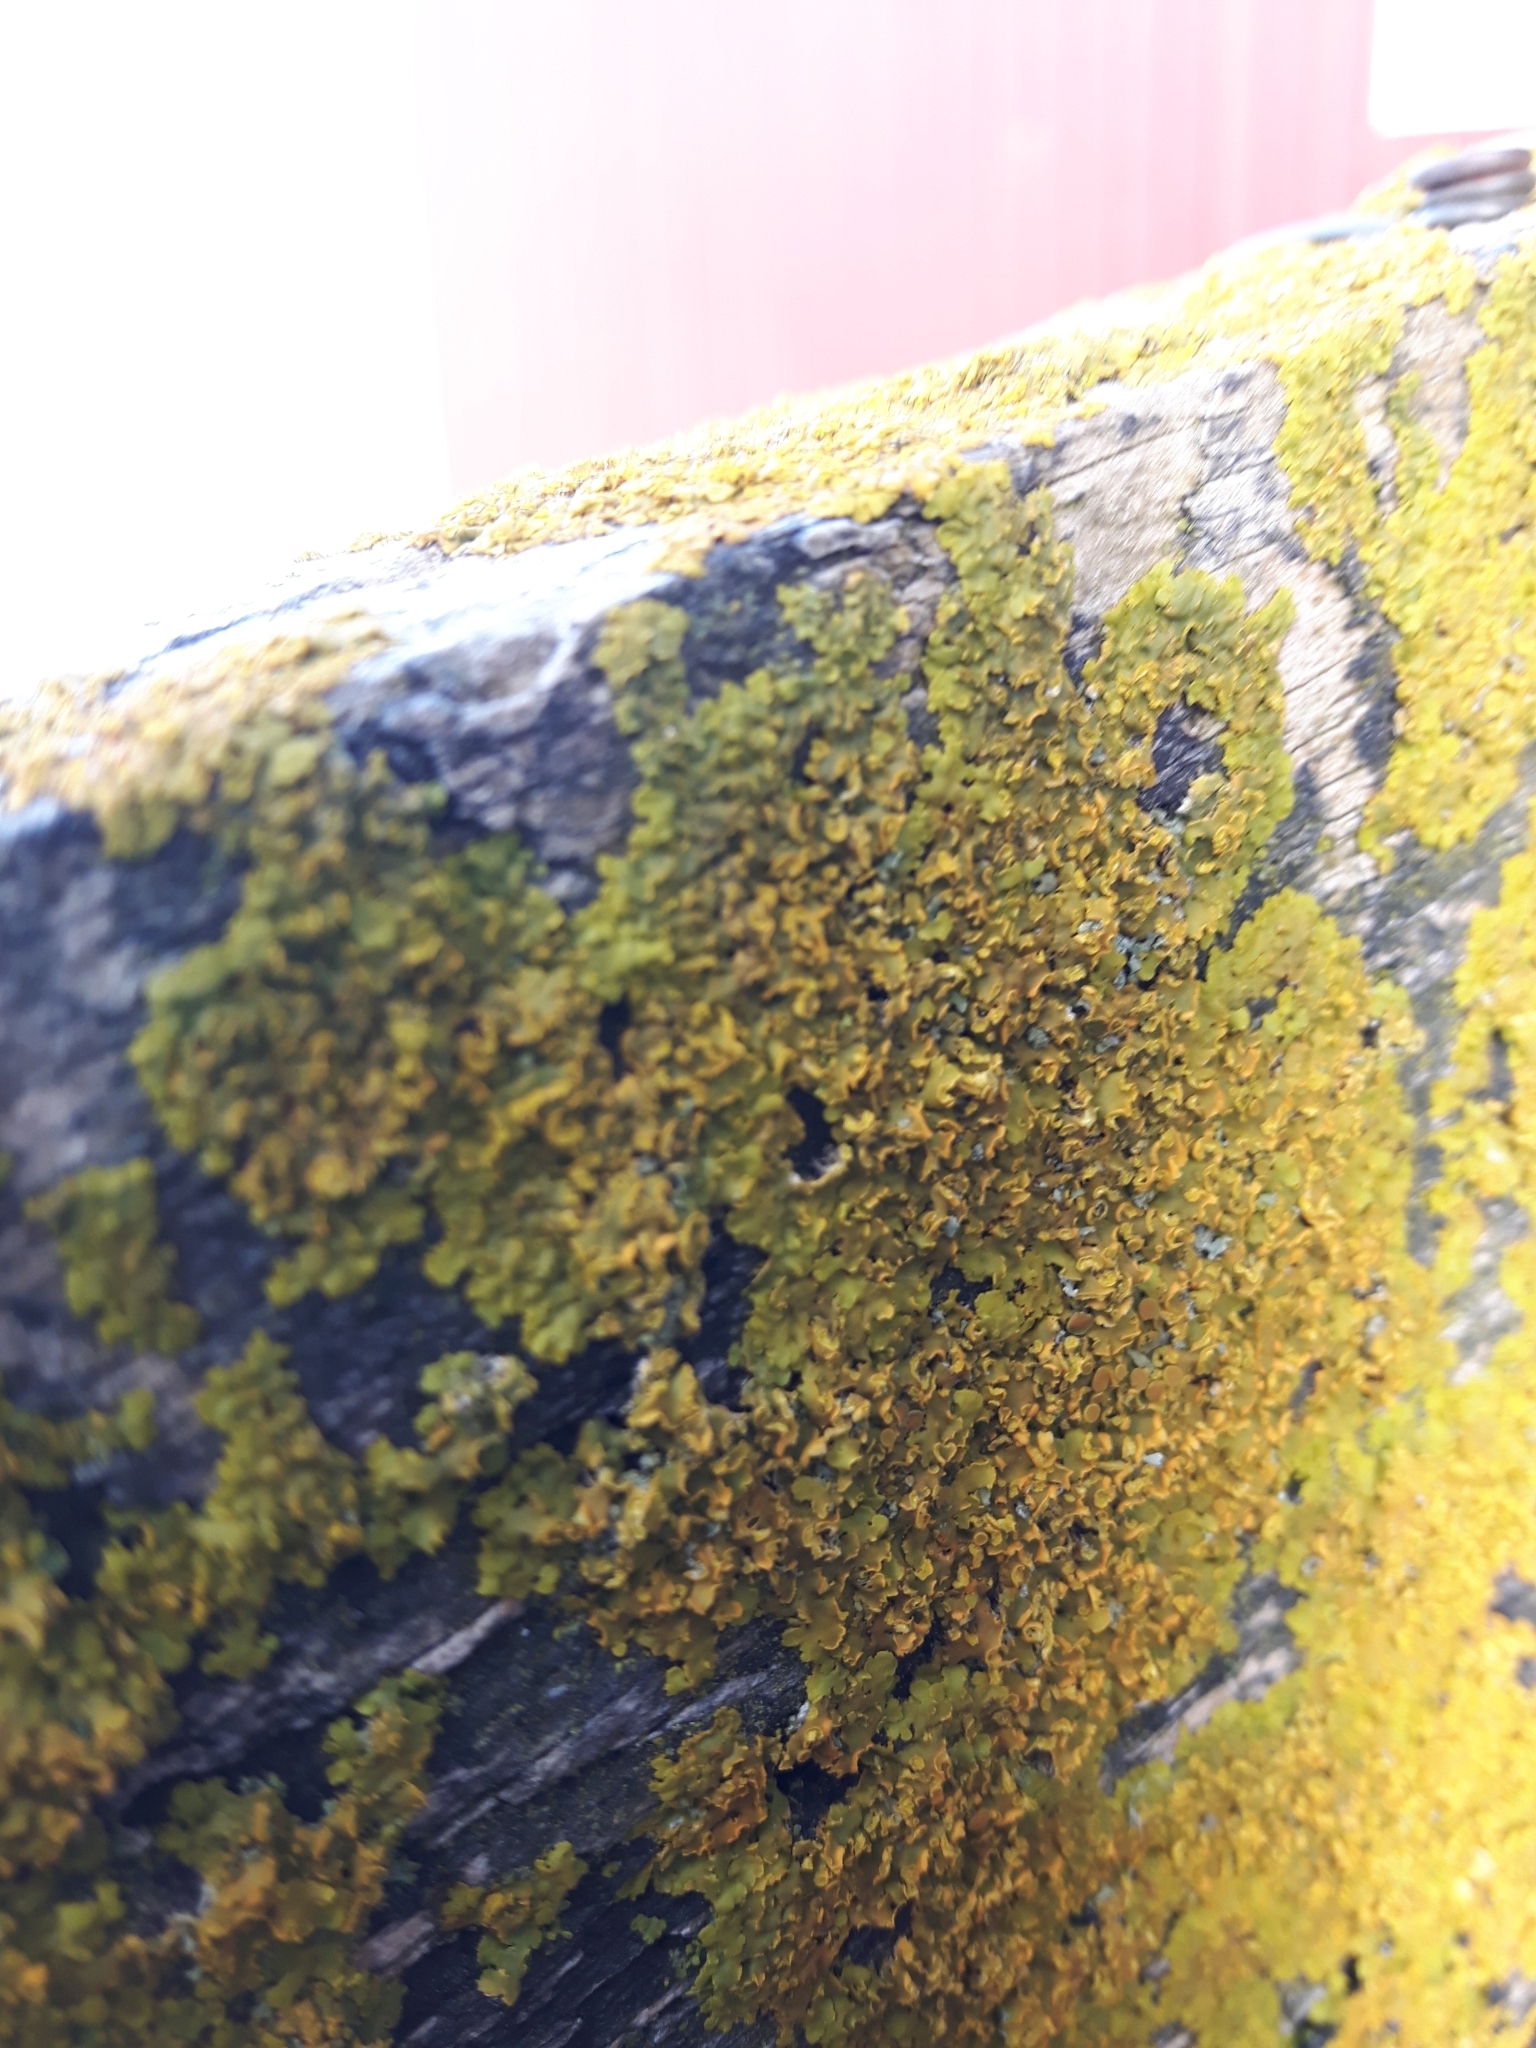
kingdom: Fungi
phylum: Ascomycota
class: Lecanoromycetes
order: Teloschistales
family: Teloschistaceae
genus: Xanthoria
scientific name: Xanthoria parietina
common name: Common orange lichen
